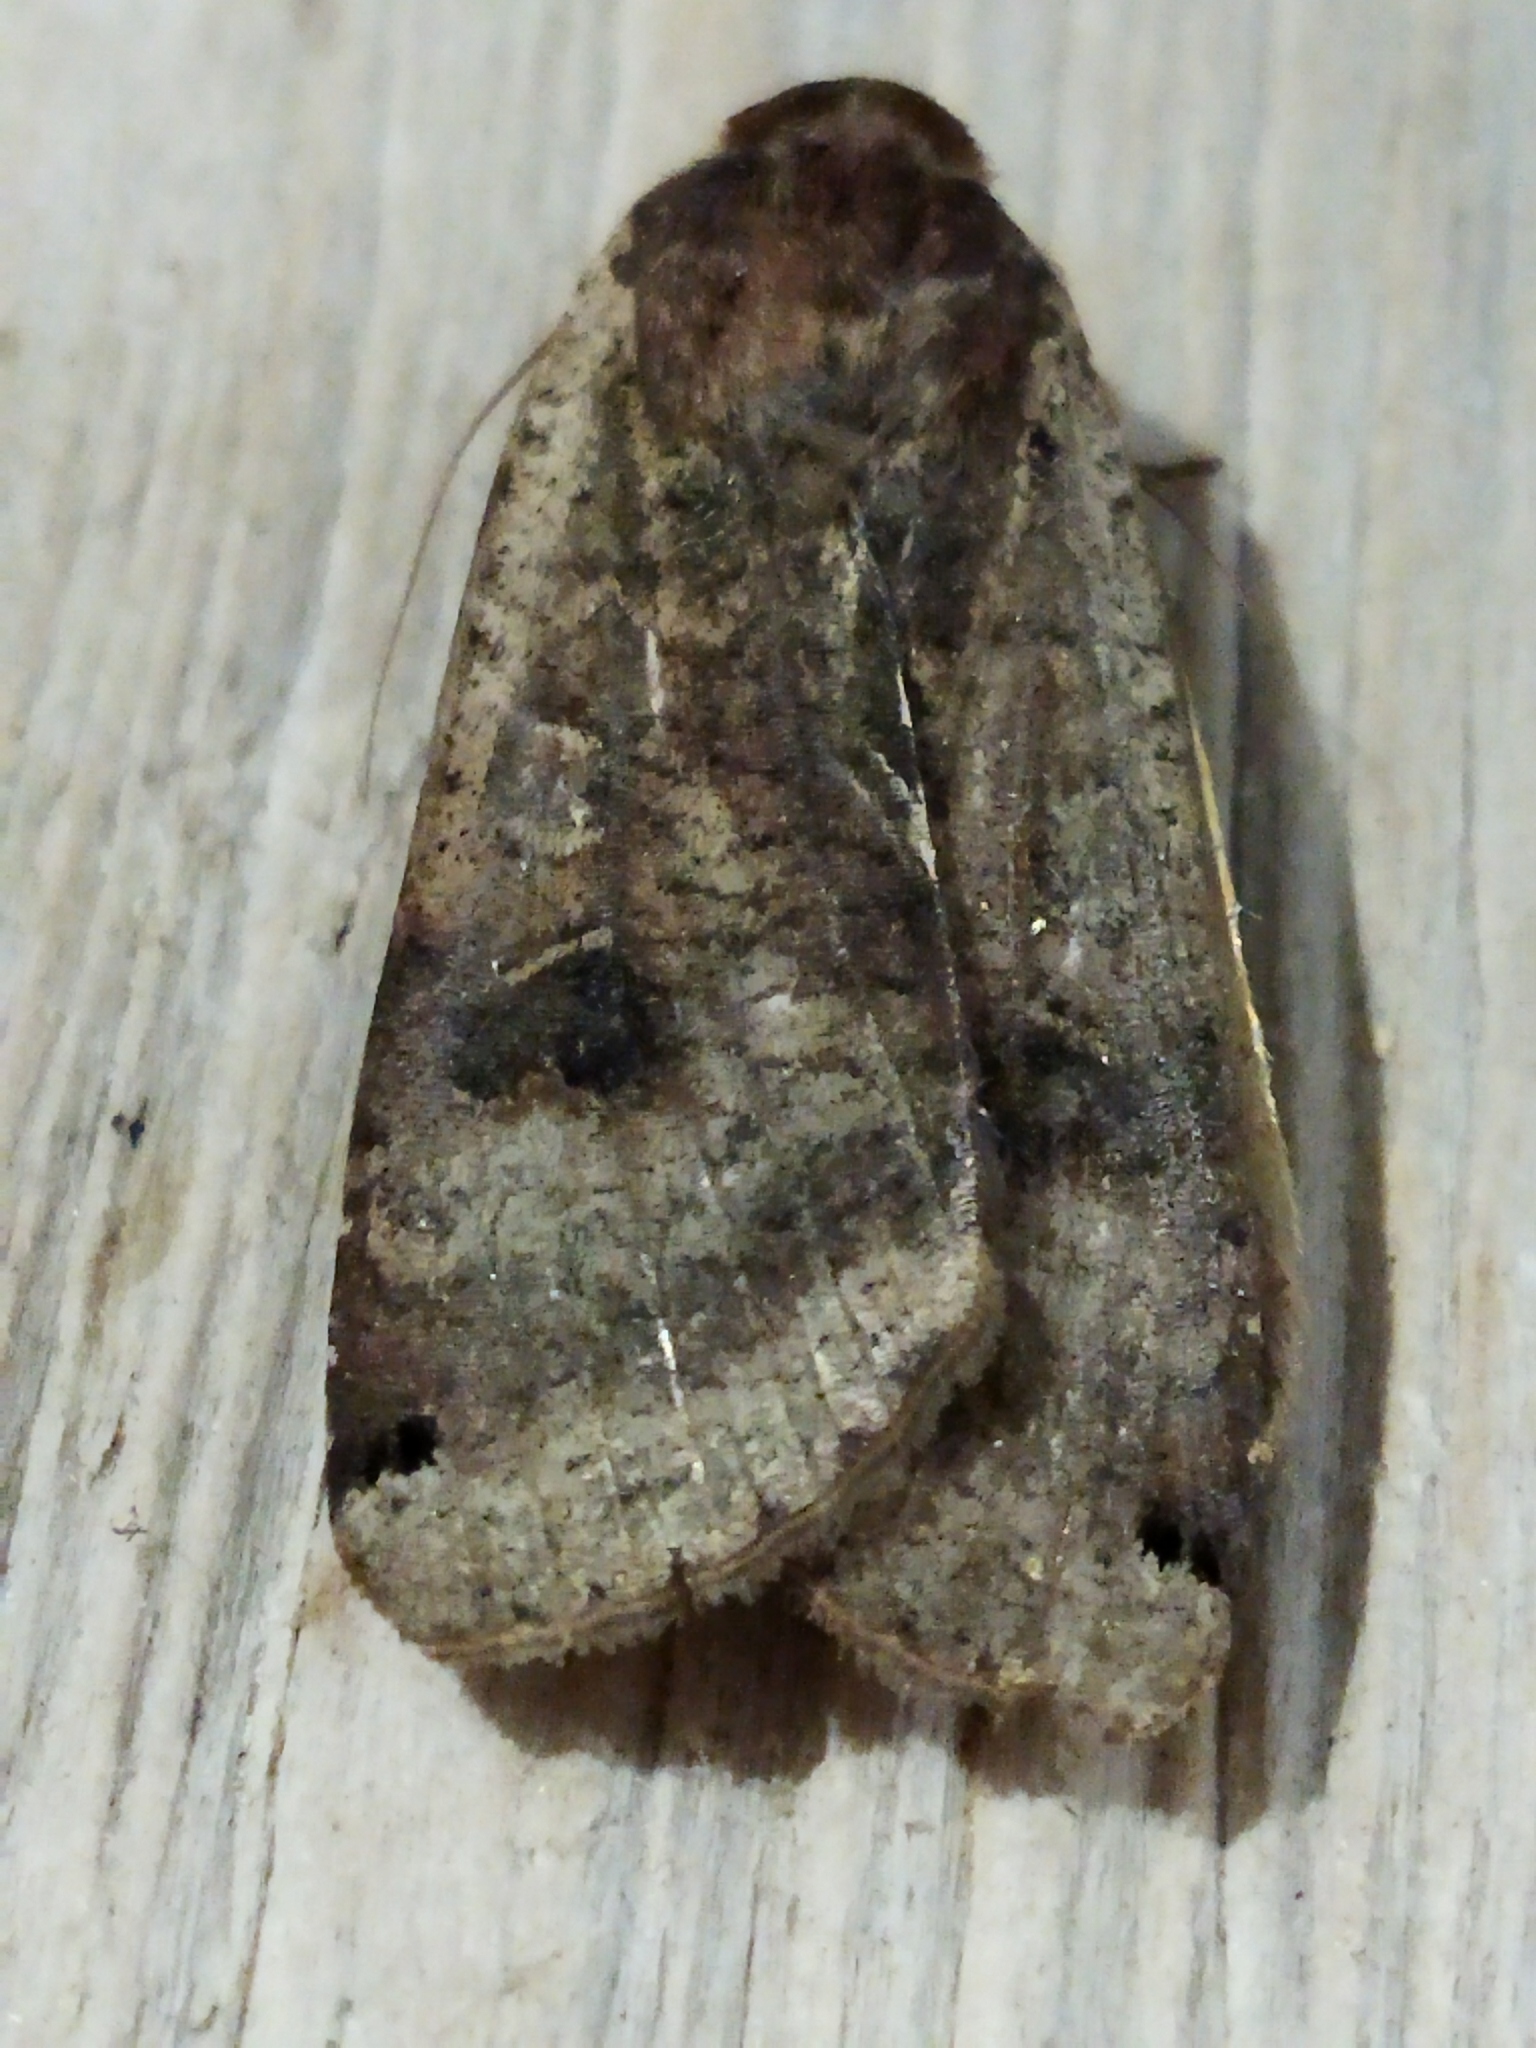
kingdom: Animalia
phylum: Arthropoda
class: Insecta
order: Lepidoptera
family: Noctuidae
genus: Noctua
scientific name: Noctua pronuba
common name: Large yellow underwing
